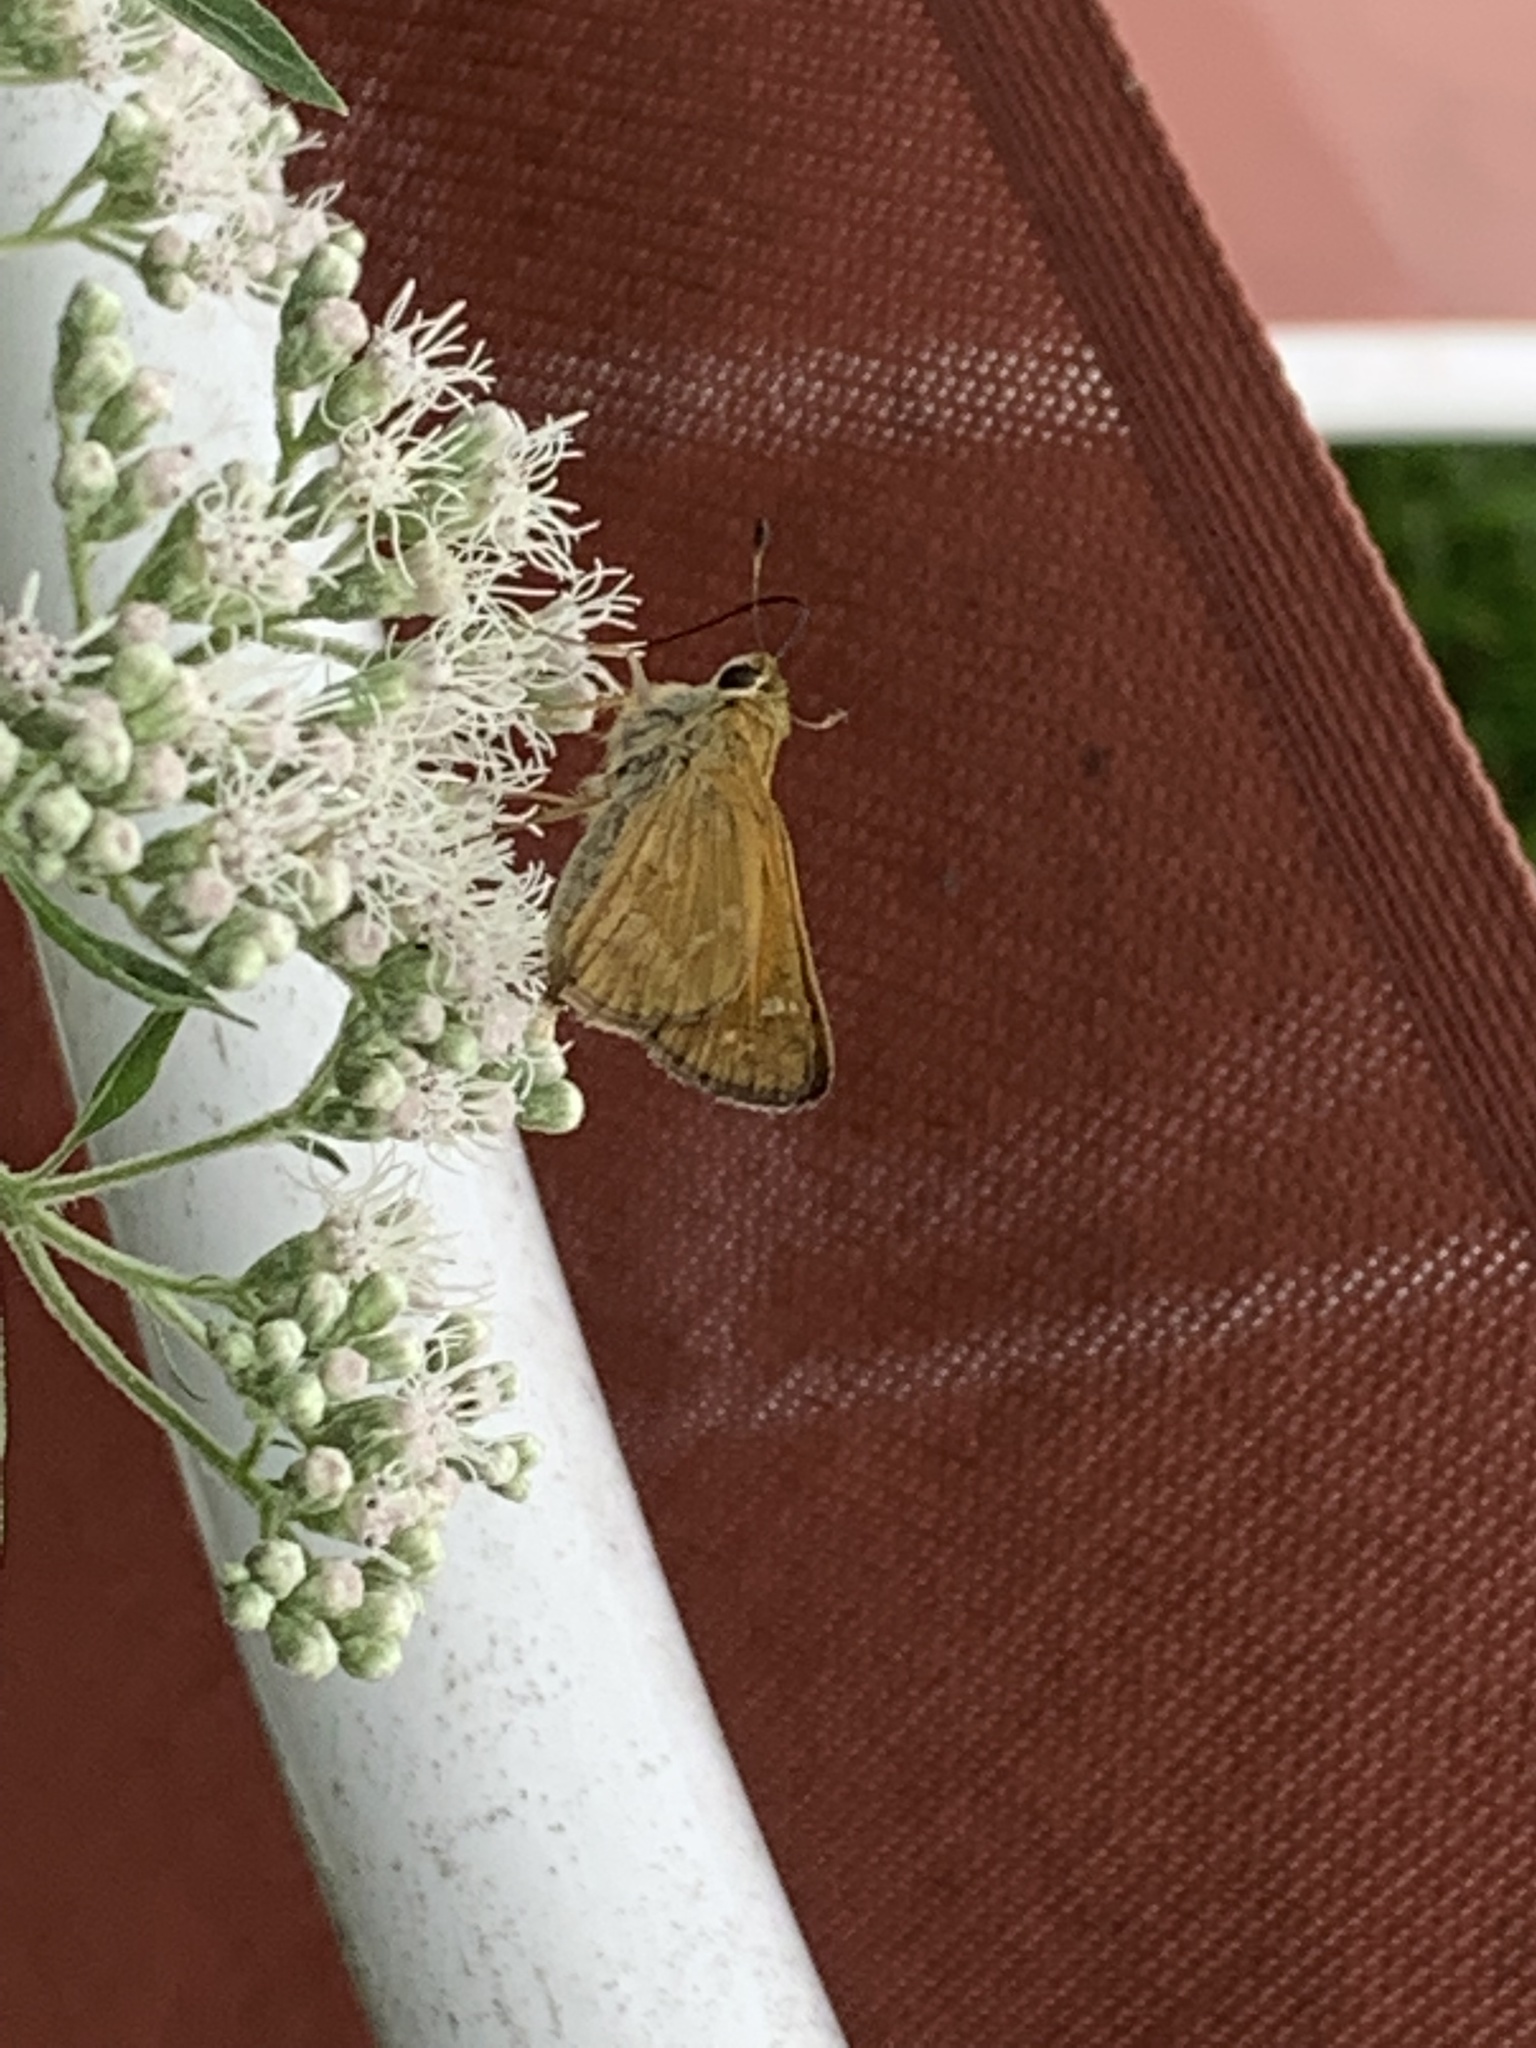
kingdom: Animalia
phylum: Arthropoda
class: Insecta
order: Lepidoptera
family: Hesperiidae
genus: Atalopedes
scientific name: Atalopedes
